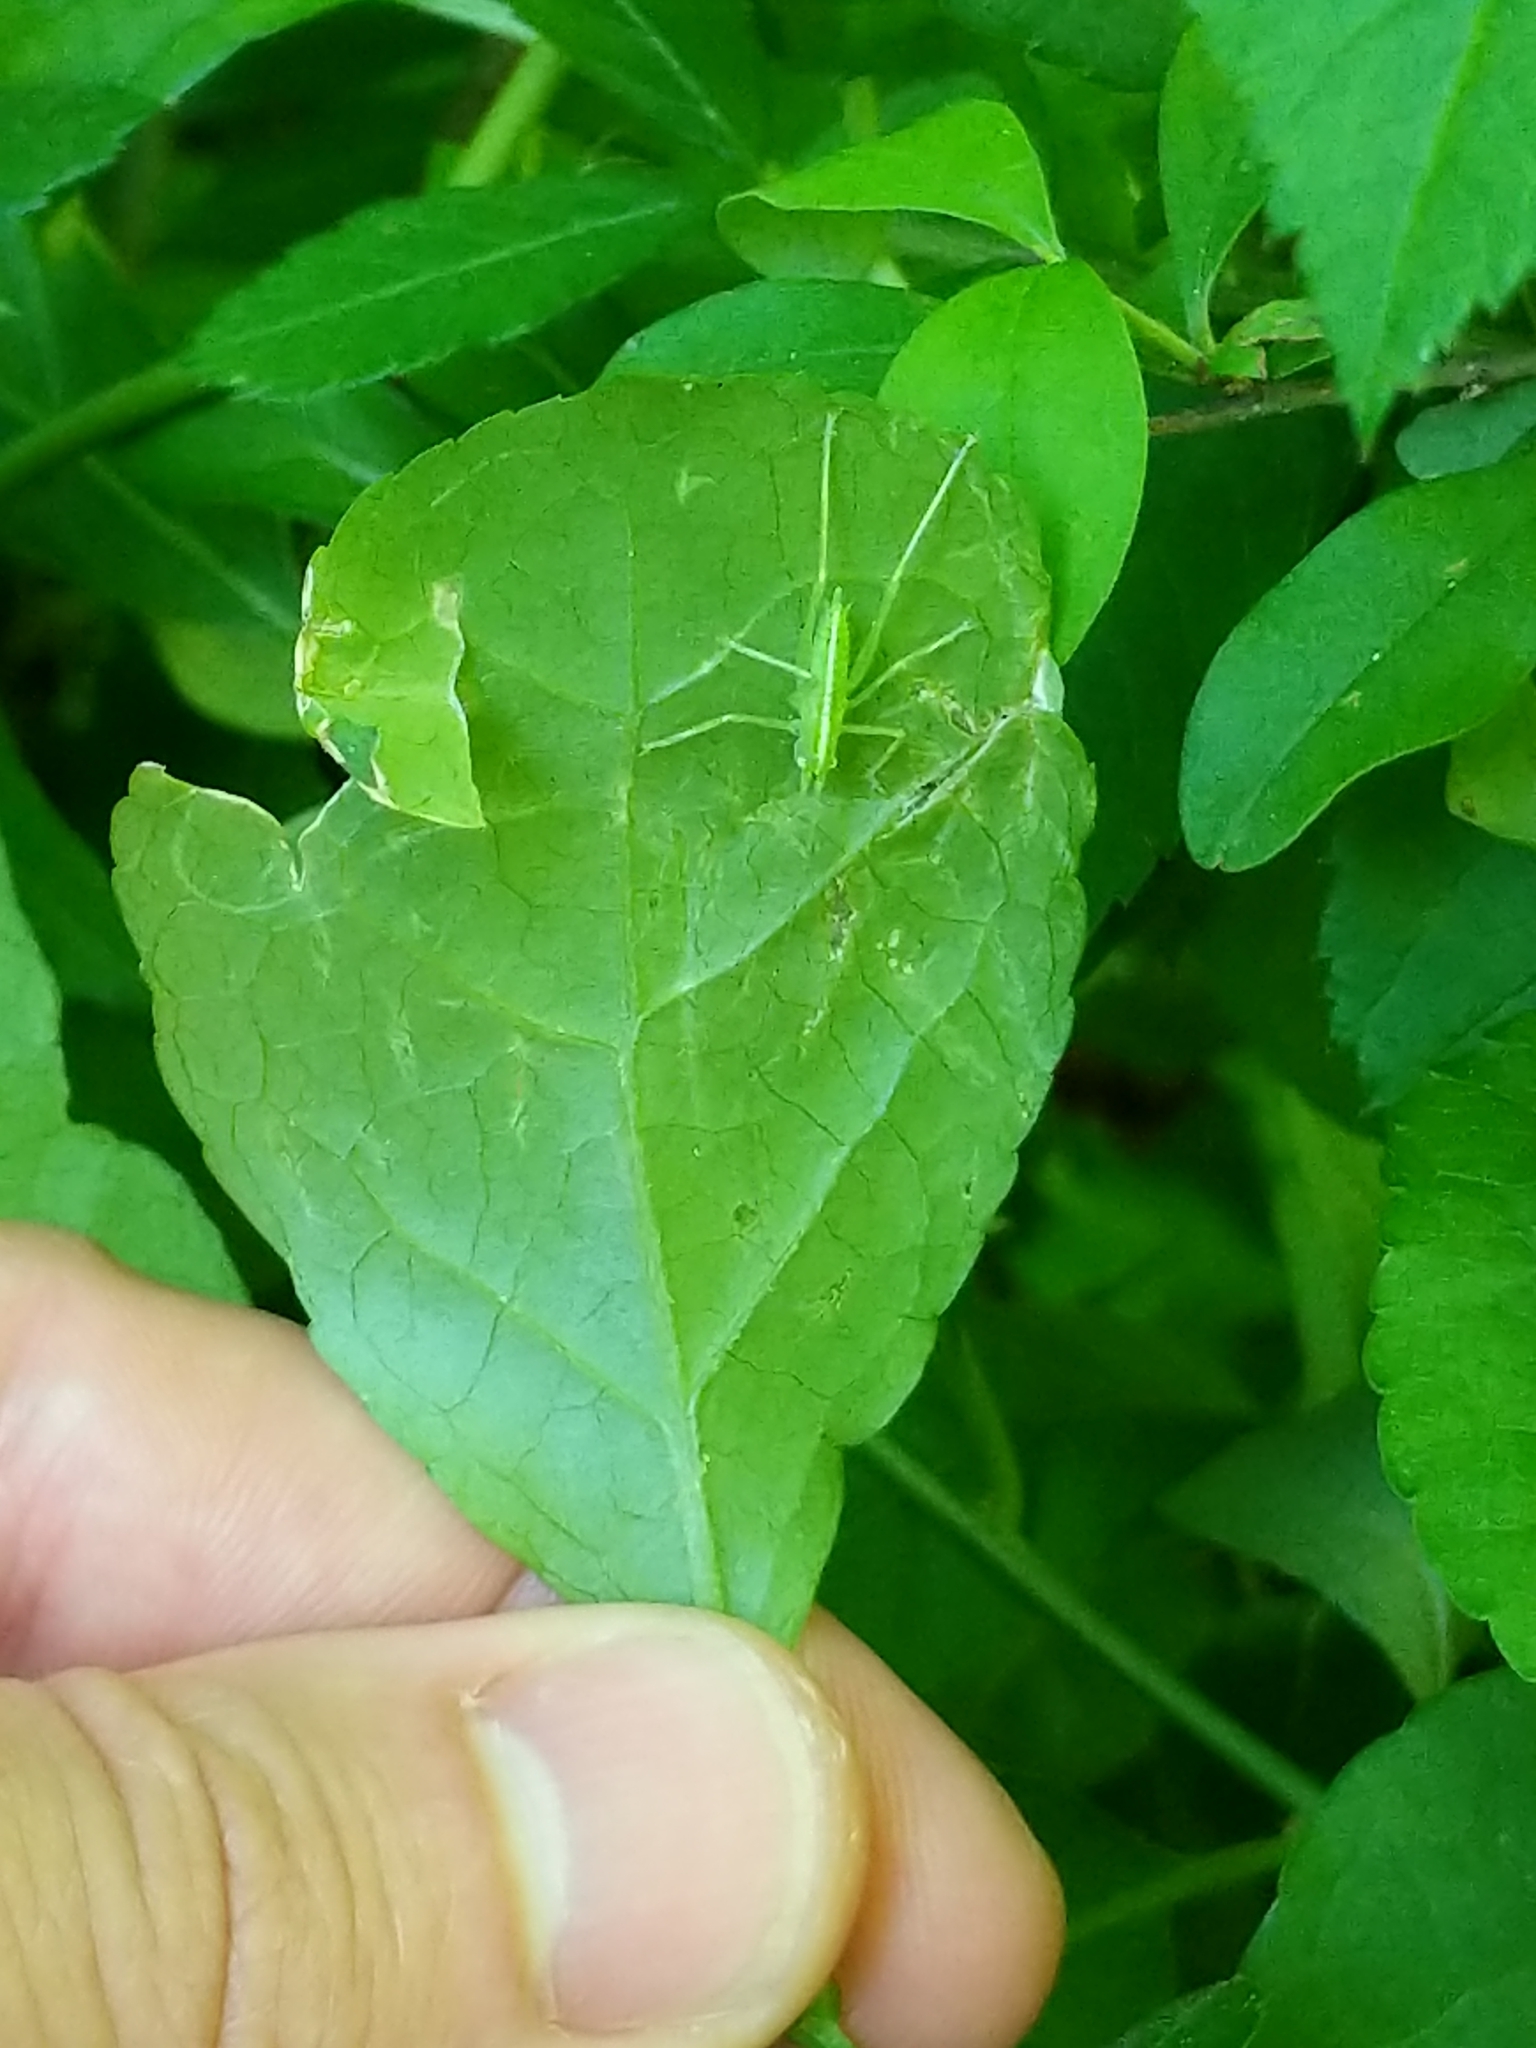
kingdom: Animalia
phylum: Arthropoda
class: Insecta
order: Orthoptera
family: Tettigoniidae
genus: Meconema
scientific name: Meconema thalassinum
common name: Oak bush-cricket
